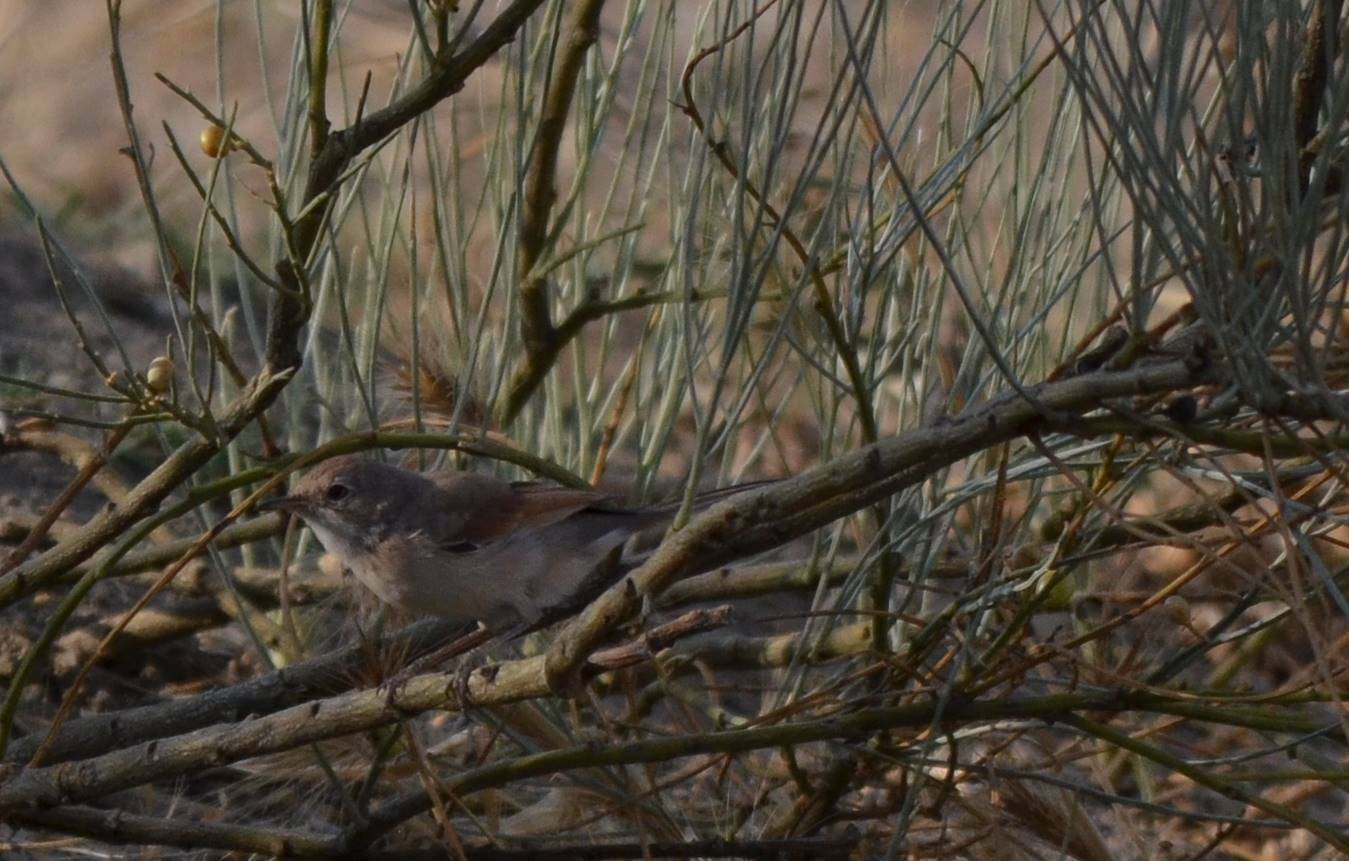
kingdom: Animalia
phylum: Chordata
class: Aves
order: Passeriformes
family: Sylviidae
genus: Sylvia
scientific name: Sylvia conspicillata
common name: Spectacled warbler
